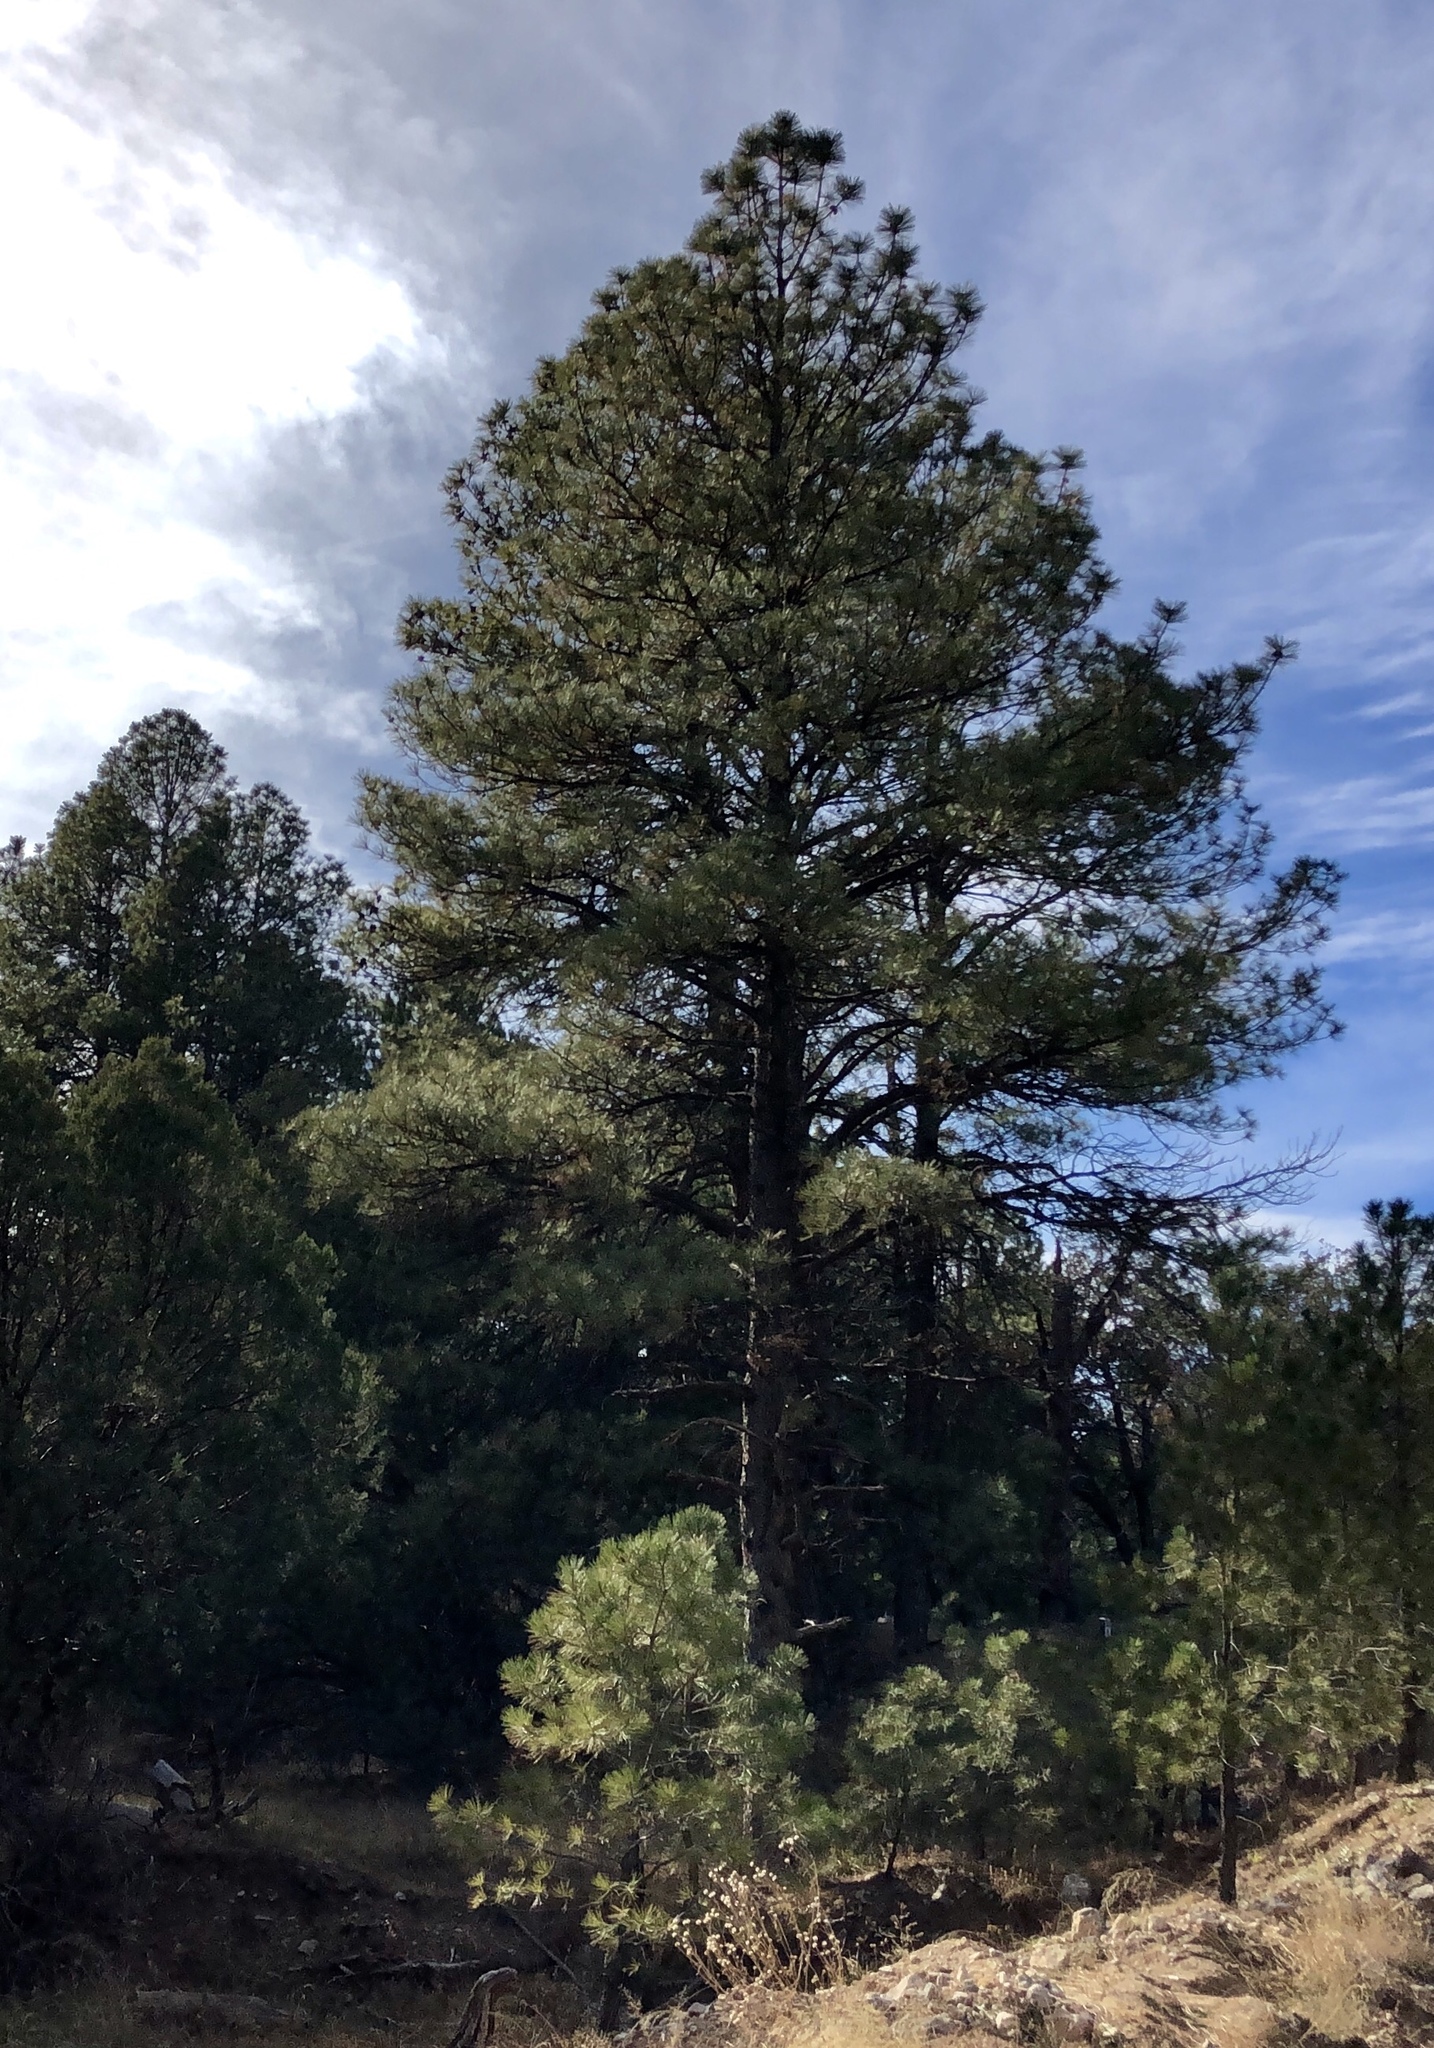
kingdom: Plantae
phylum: Tracheophyta
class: Pinopsida
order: Pinales
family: Pinaceae
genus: Pinus
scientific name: Pinus ponderosa
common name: Western yellow-pine
